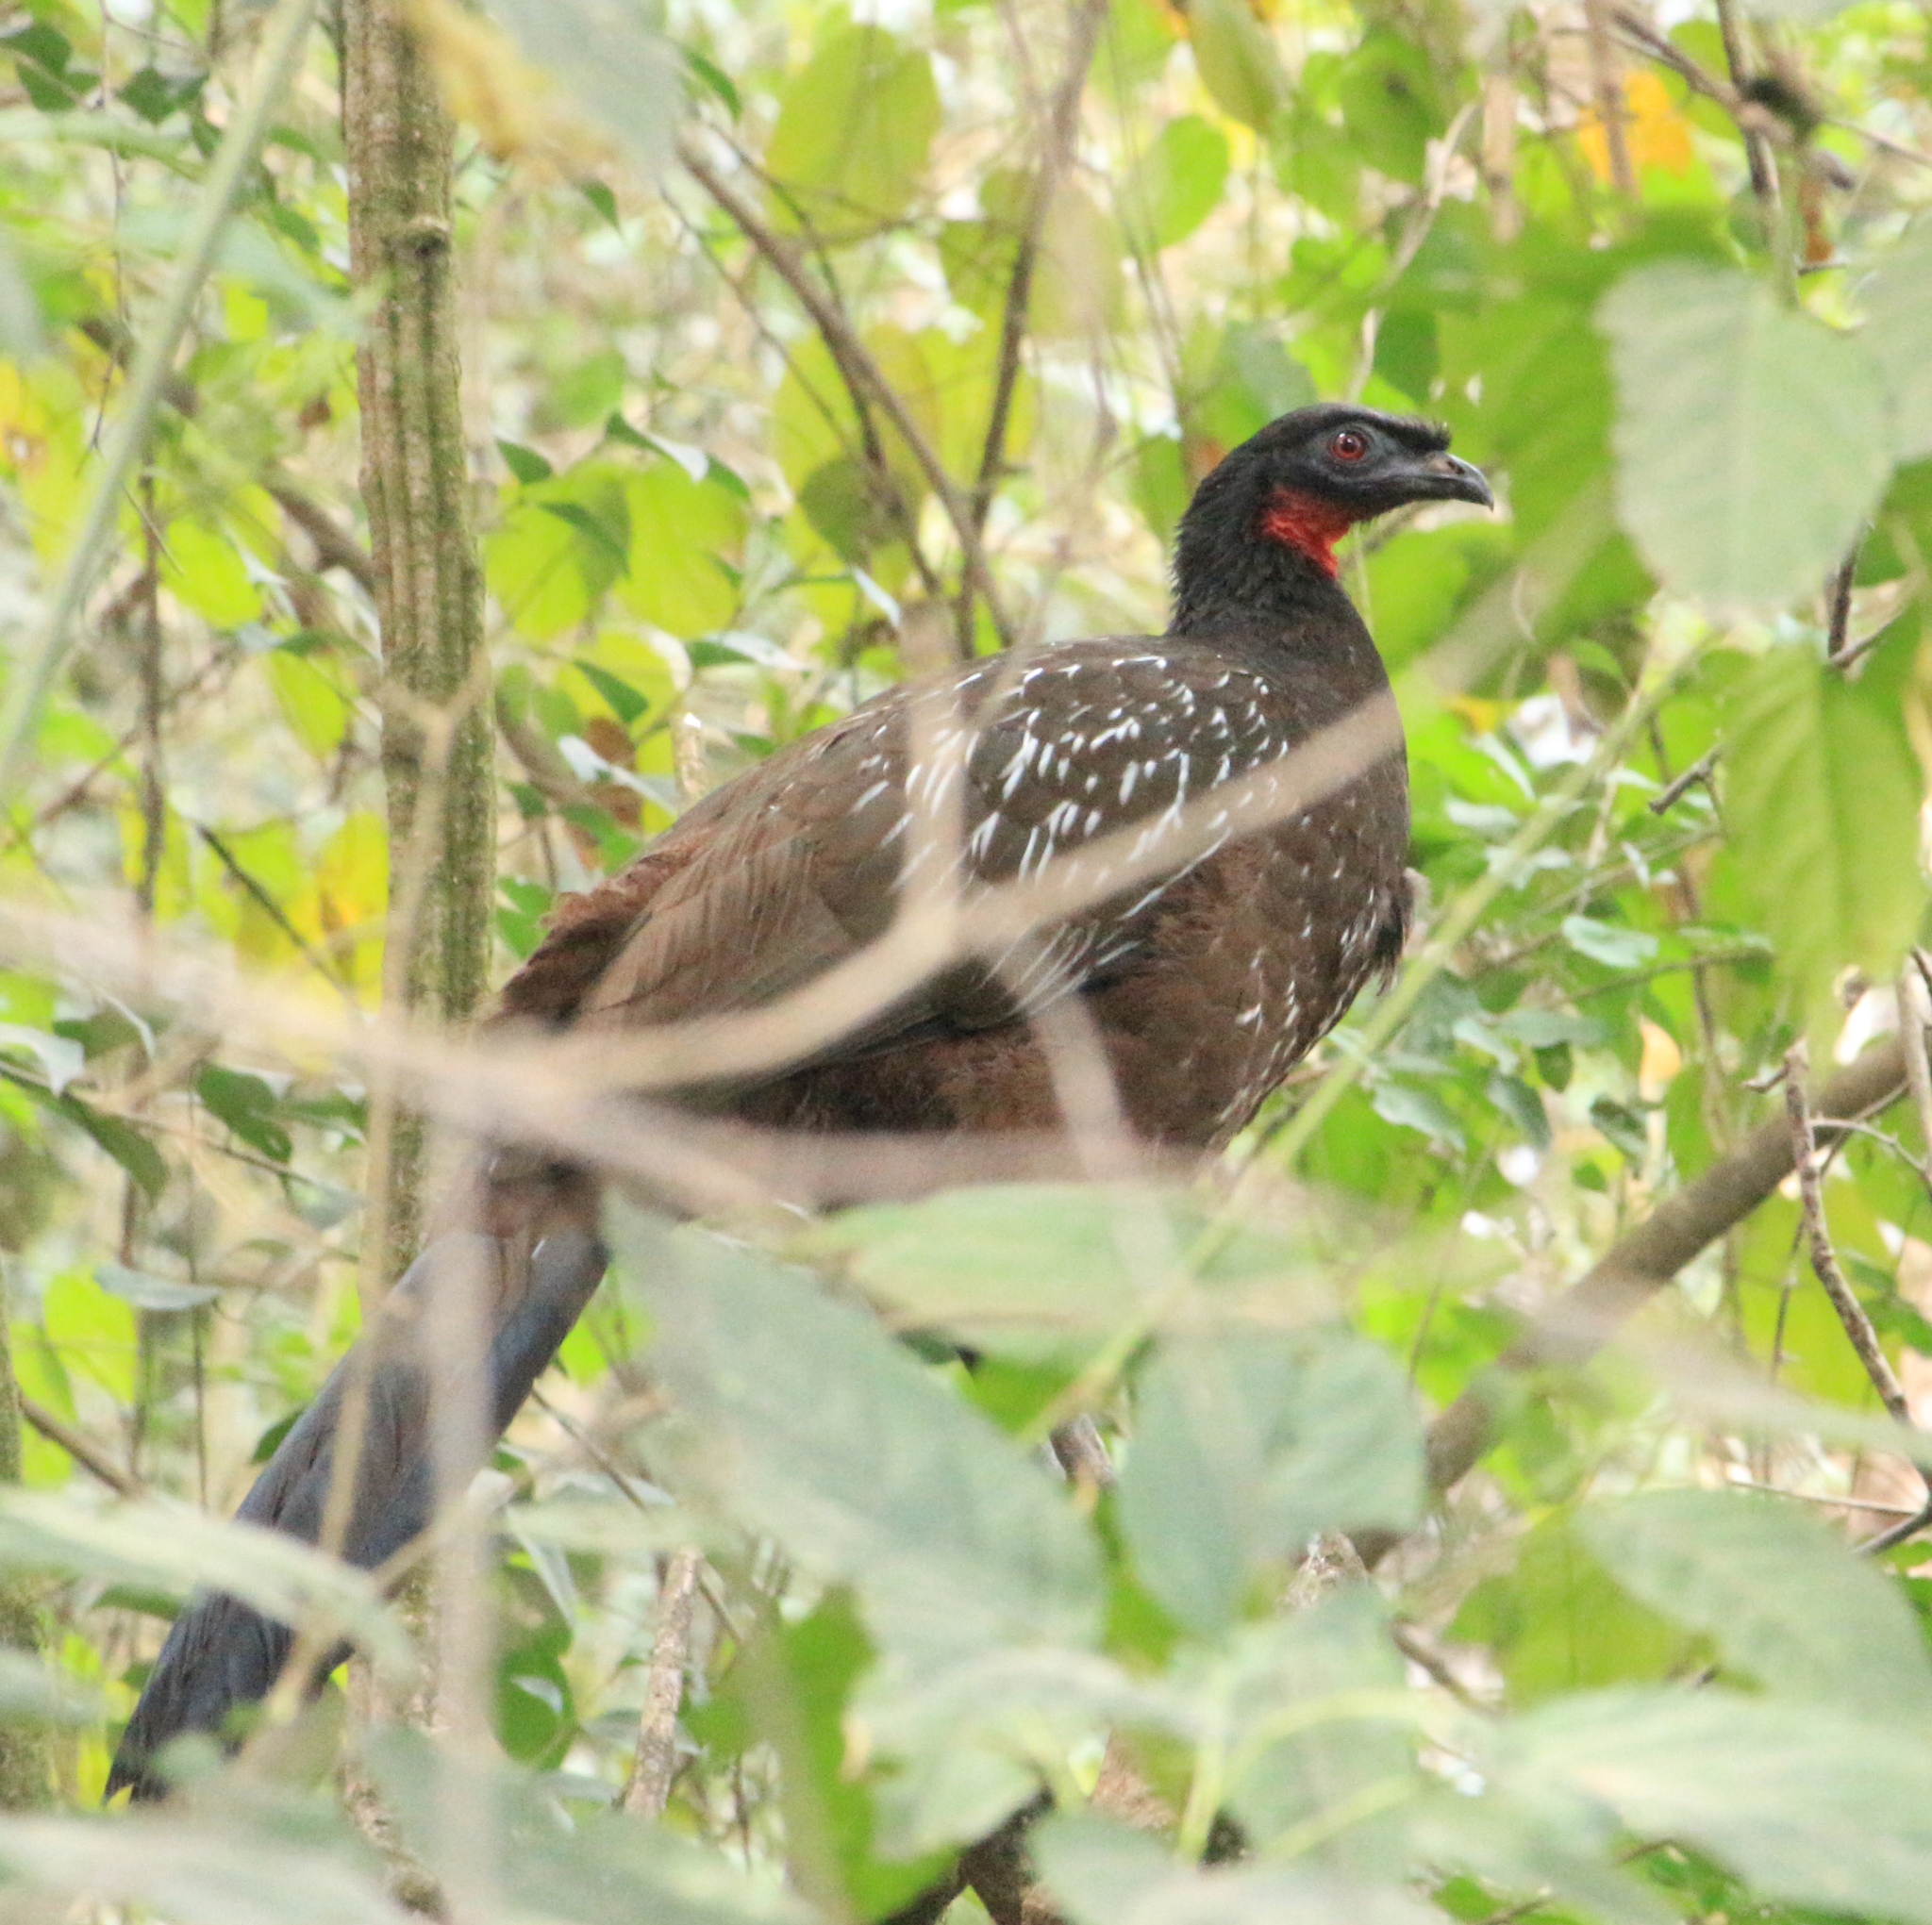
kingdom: Animalia
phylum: Chordata
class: Aves
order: Galliformes
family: Cracidae
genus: Penelope
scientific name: Penelope bridgesi
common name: Yungas guan
